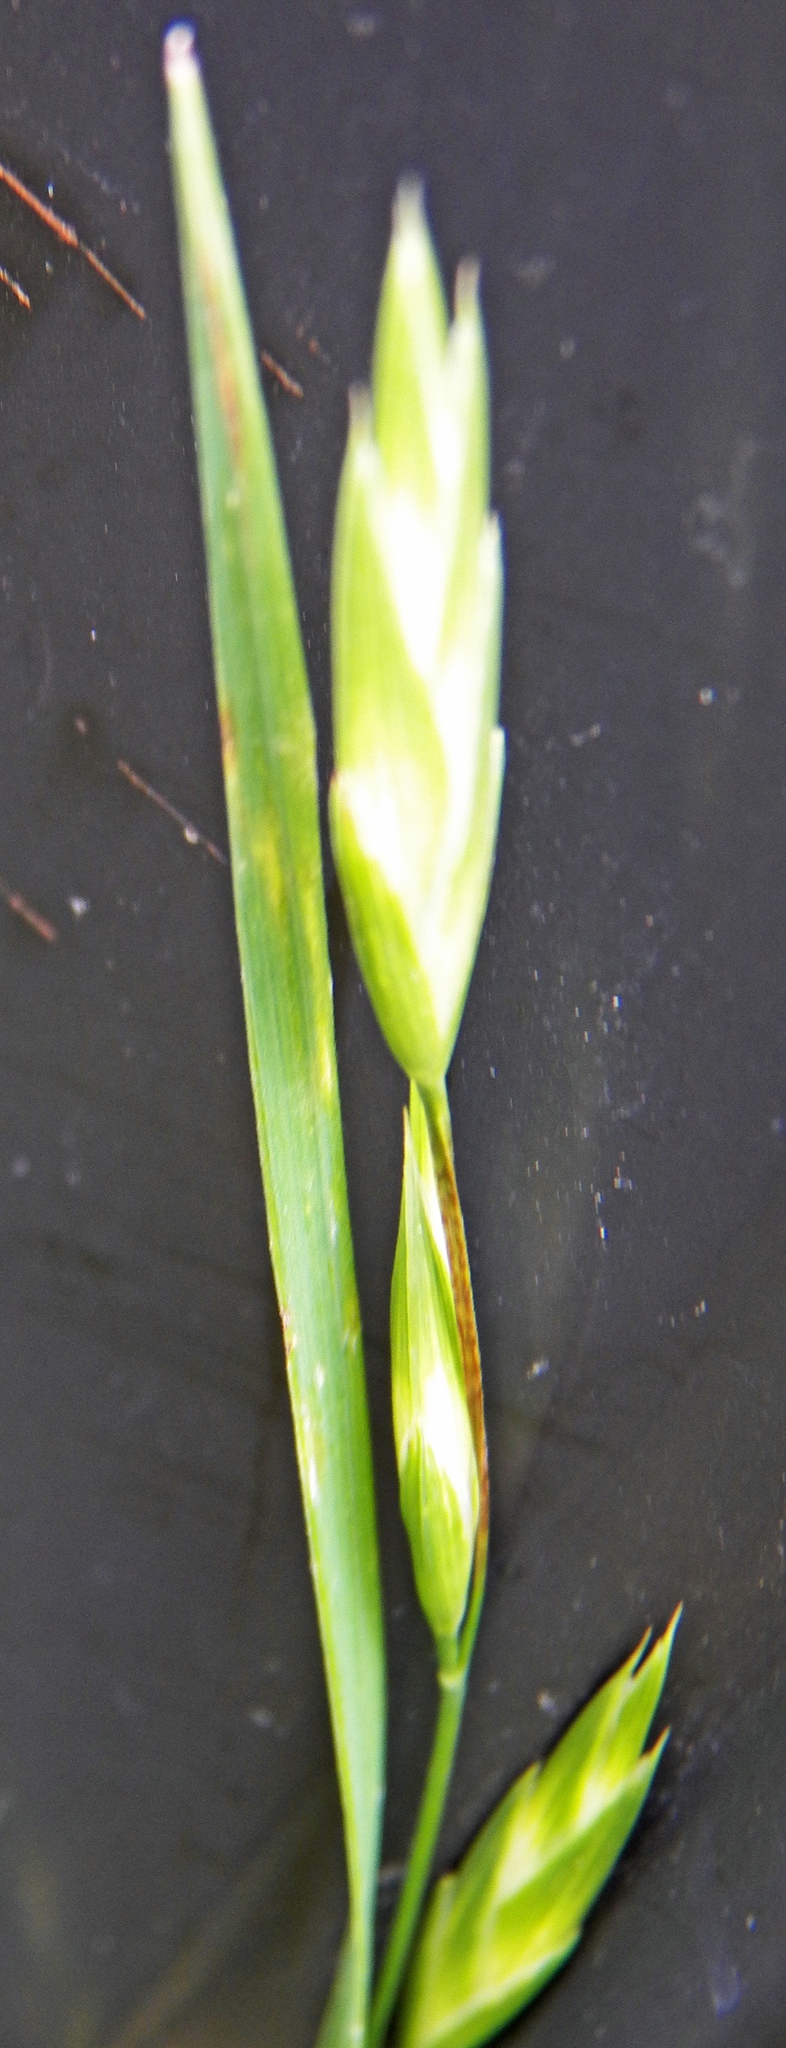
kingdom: Plantae
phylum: Tracheophyta
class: Liliopsida
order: Poales
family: Poaceae
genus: Bromus
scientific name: Bromus catharticus
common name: Rescuegrass
